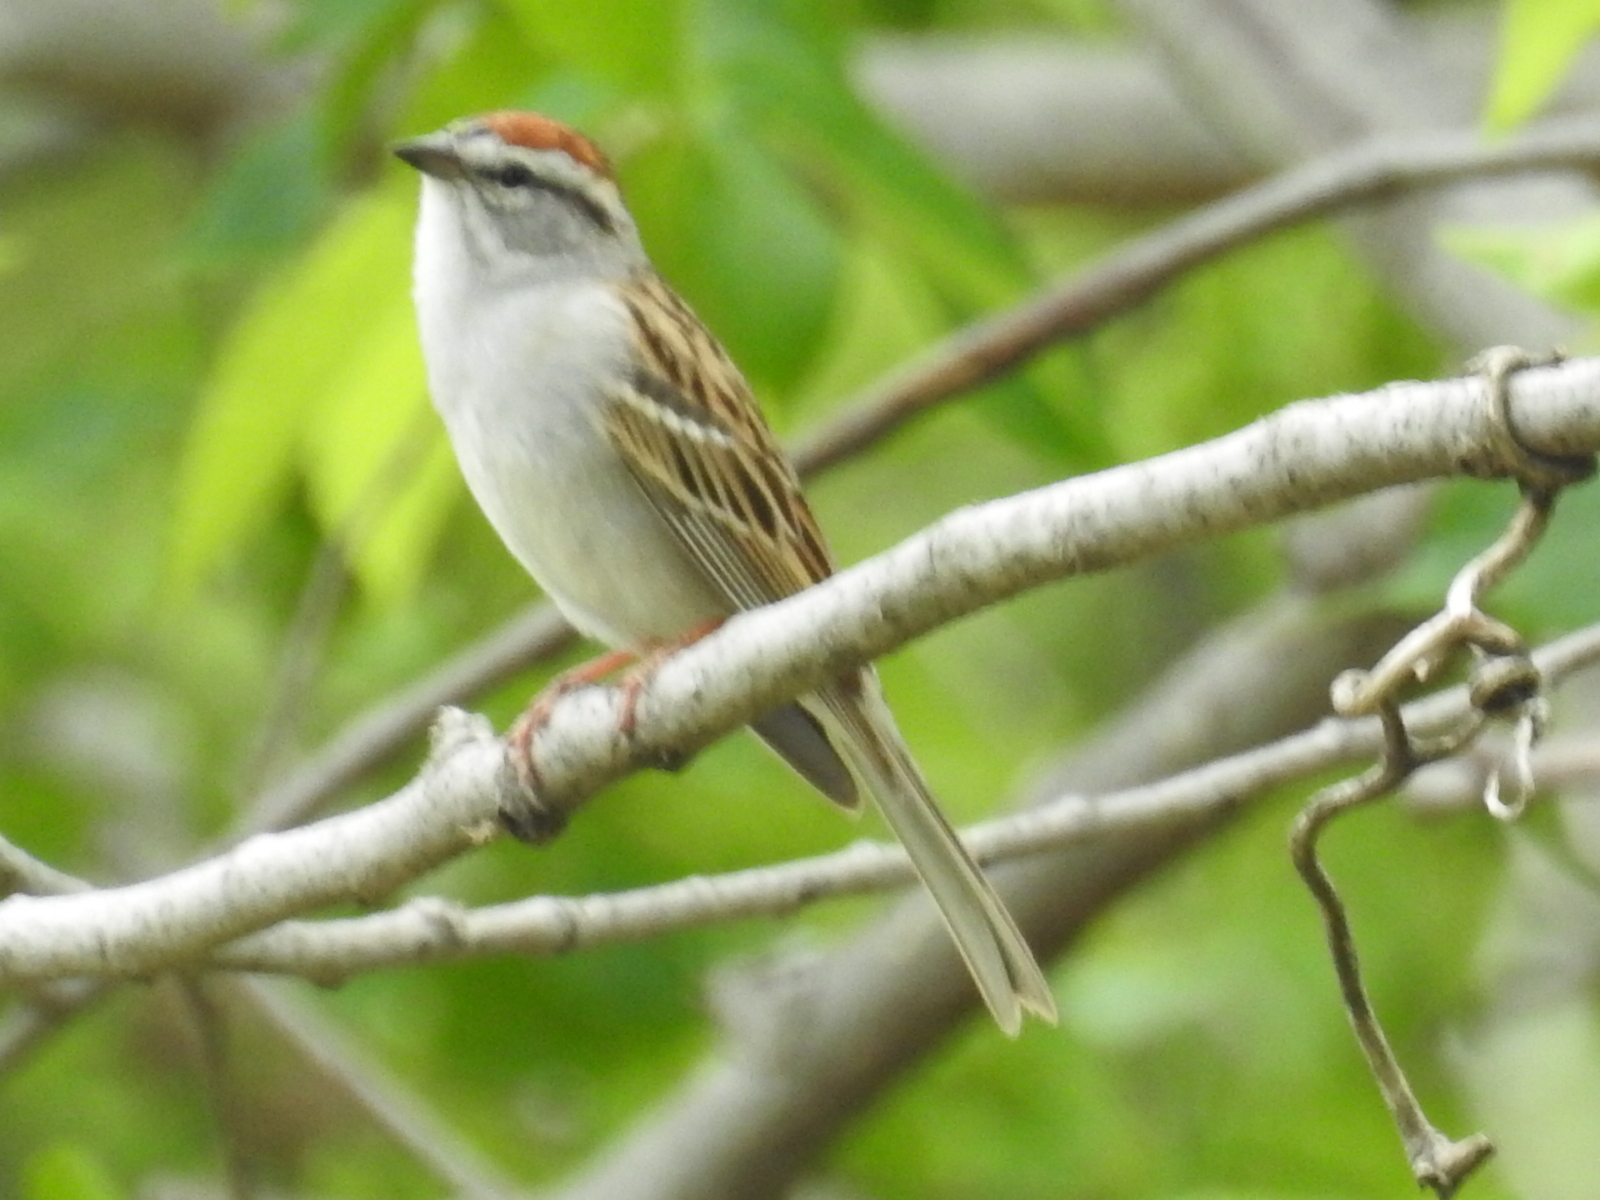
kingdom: Animalia
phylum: Chordata
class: Aves
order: Passeriformes
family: Passerellidae
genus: Spizella
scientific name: Spizella passerina
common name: Chipping sparrow
